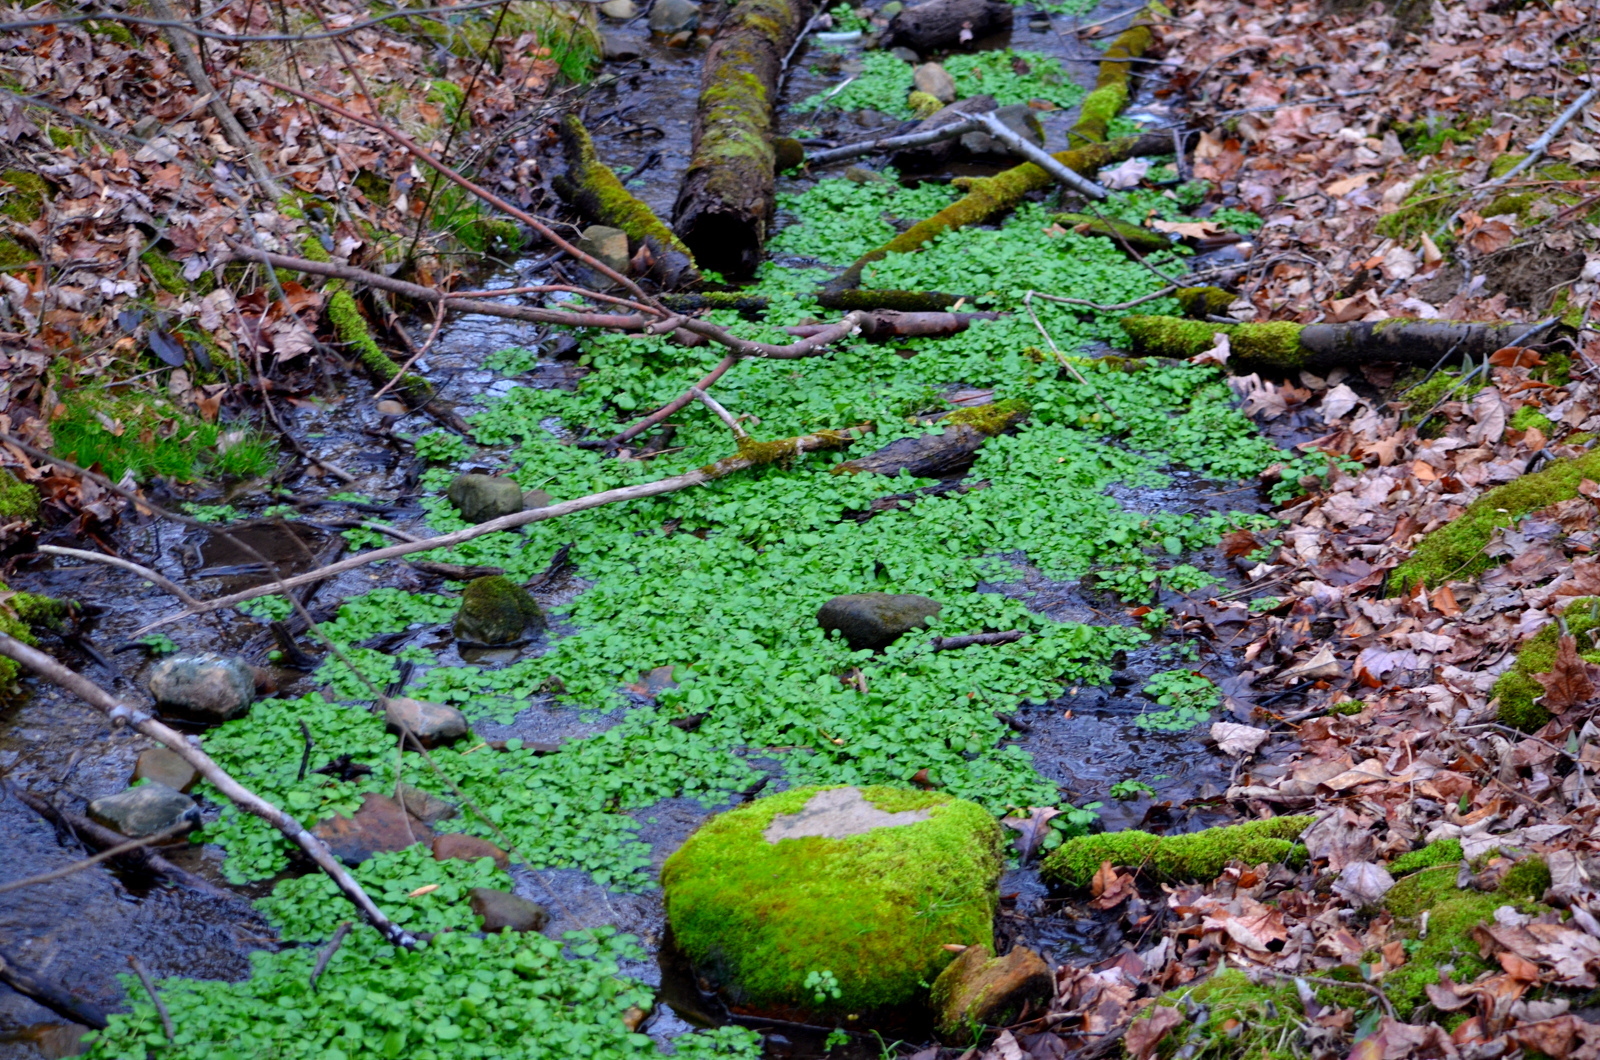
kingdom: Plantae
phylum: Tracheophyta
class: Magnoliopsida
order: Brassicales
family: Brassicaceae
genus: Nasturtium
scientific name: Nasturtium officinale
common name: Watercress
